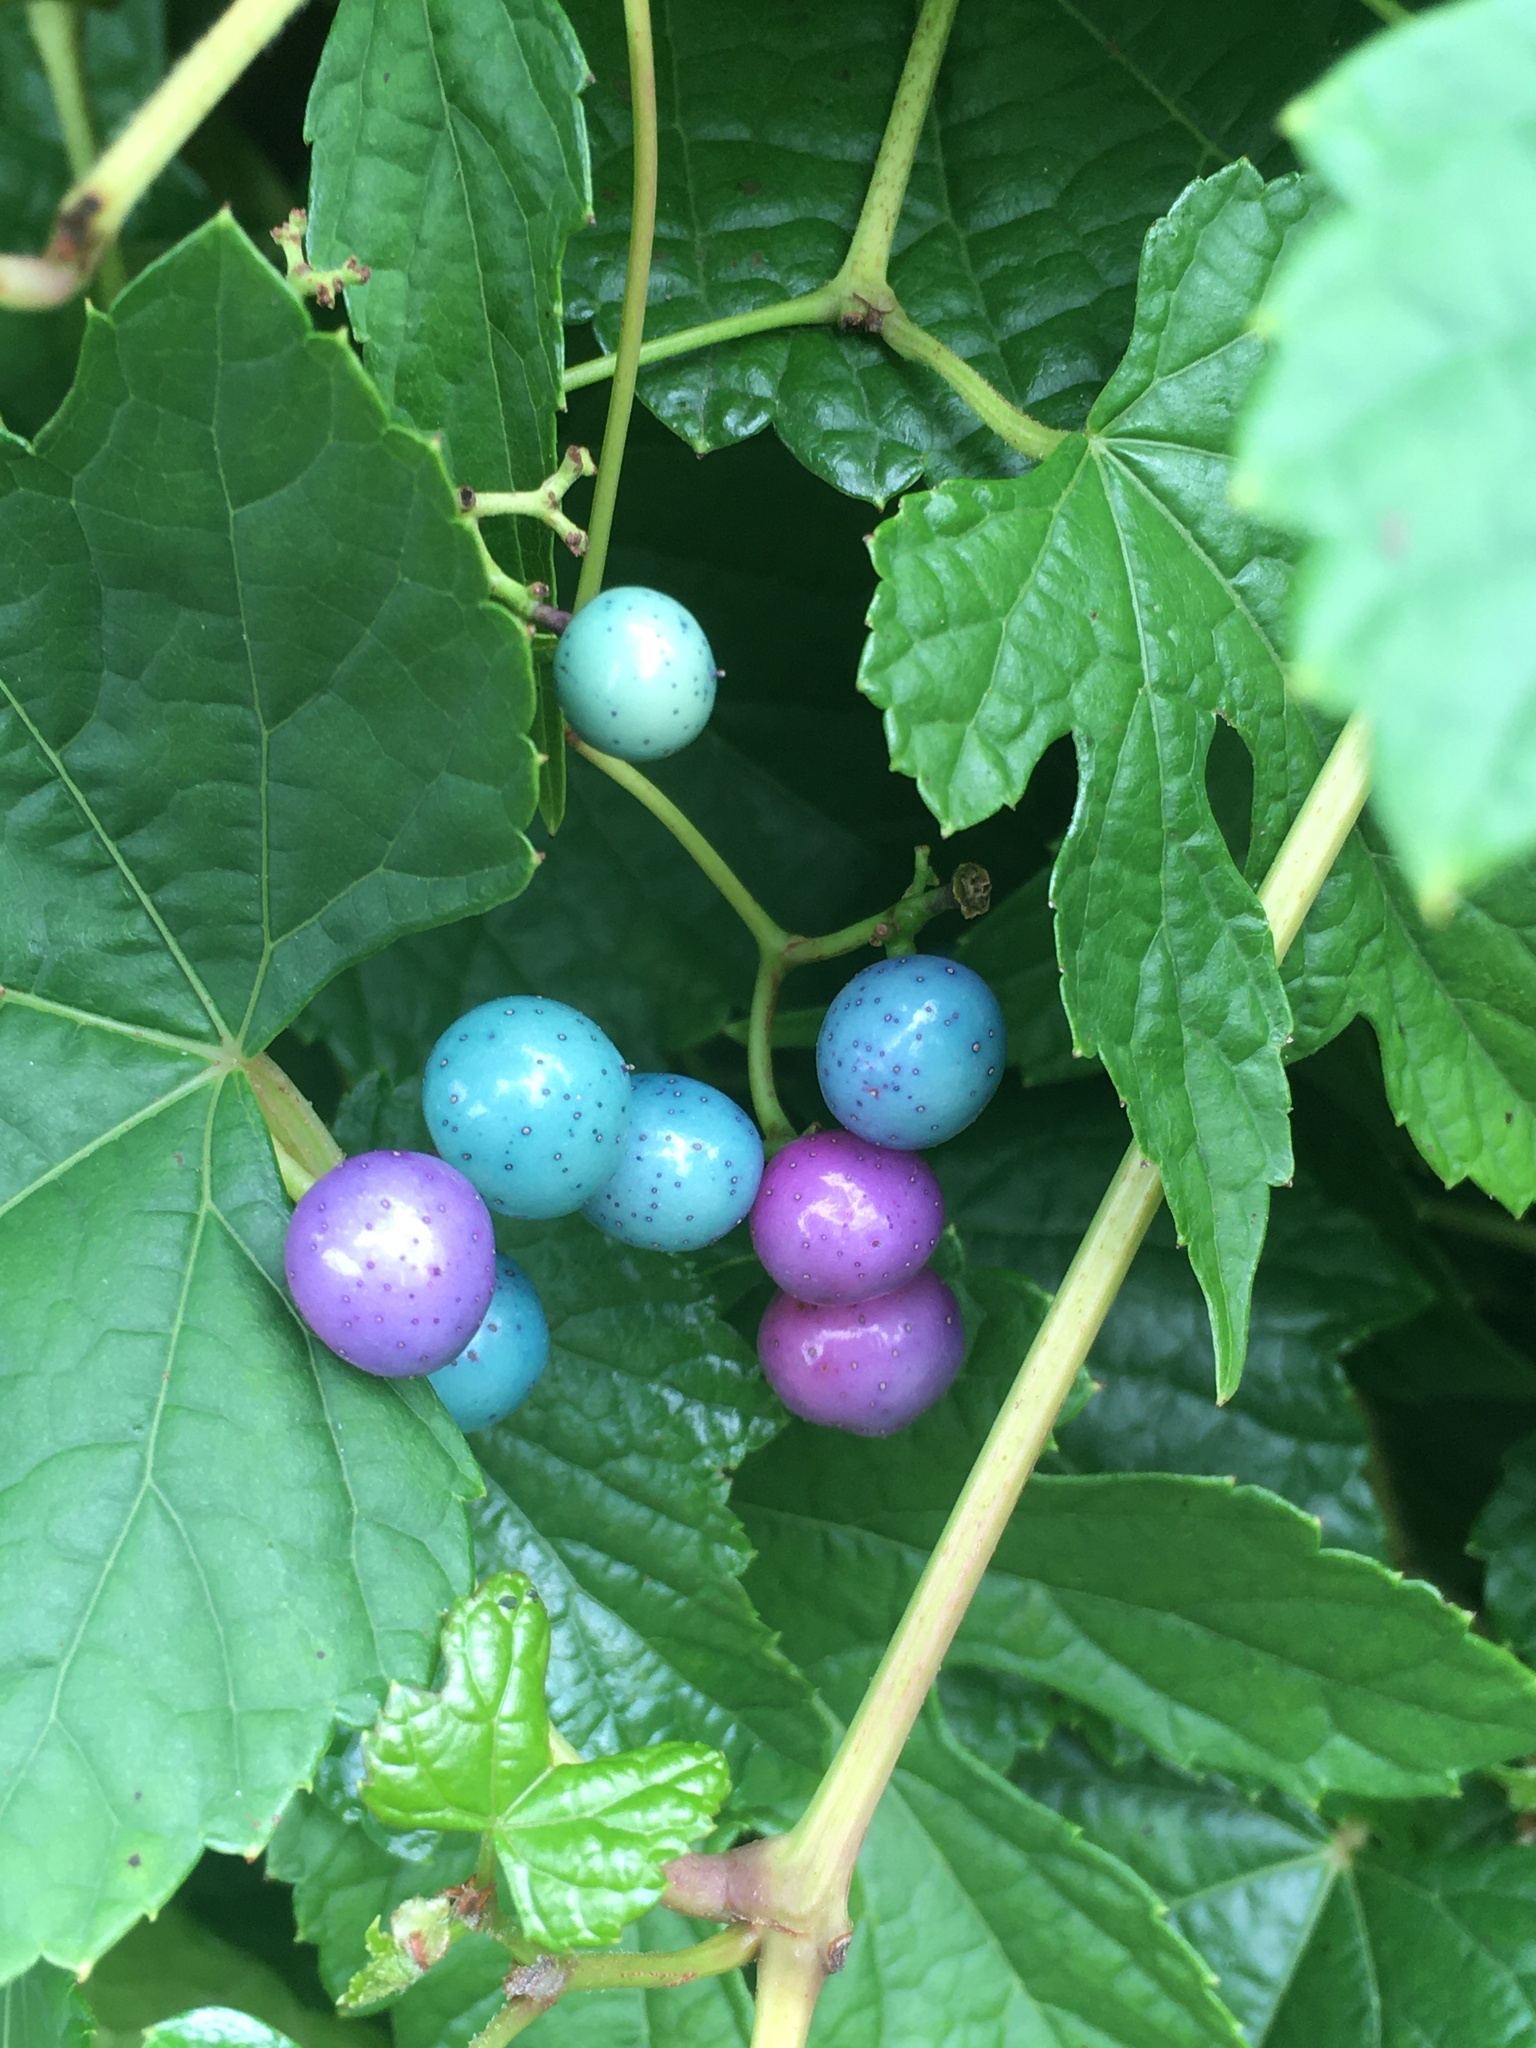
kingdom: Plantae
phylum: Tracheophyta
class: Magnoliopsida
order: Vitales
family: Vitaceae
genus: Ampelopsis
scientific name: Ampelopsis glandulosa
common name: Amur peppervine
